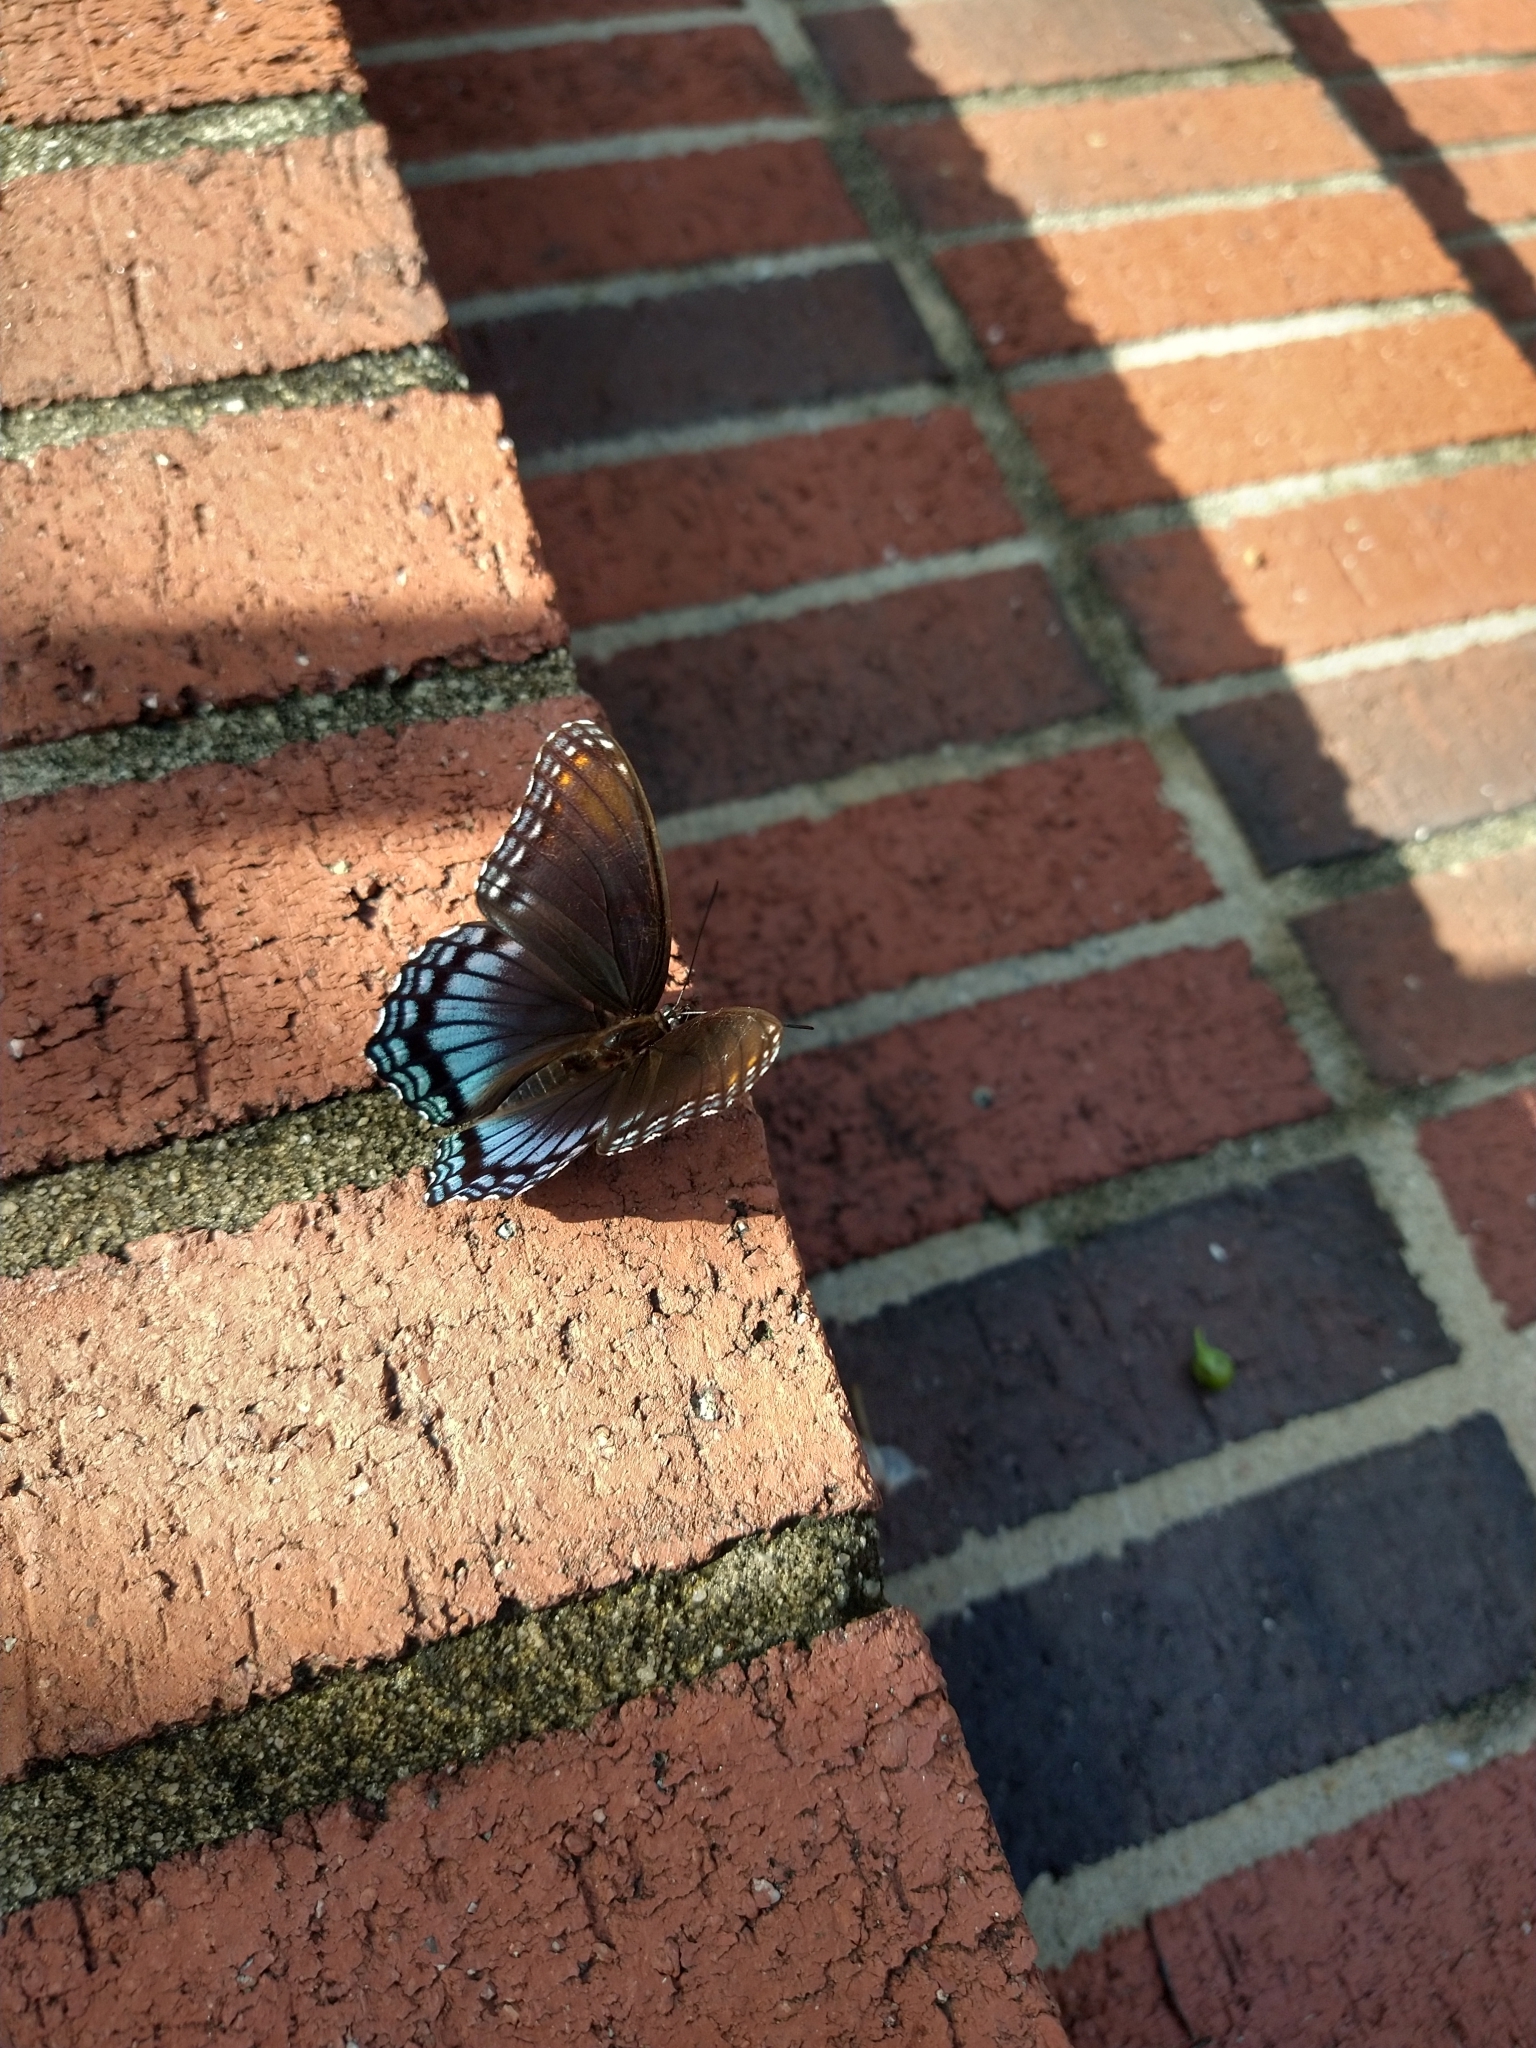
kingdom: Animalia
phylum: Arthropoda
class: Insecta
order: Lepidoptera
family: Nymphalidae
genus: Limenitis
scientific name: Limenitis arthemis
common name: Red-spotted admiral
